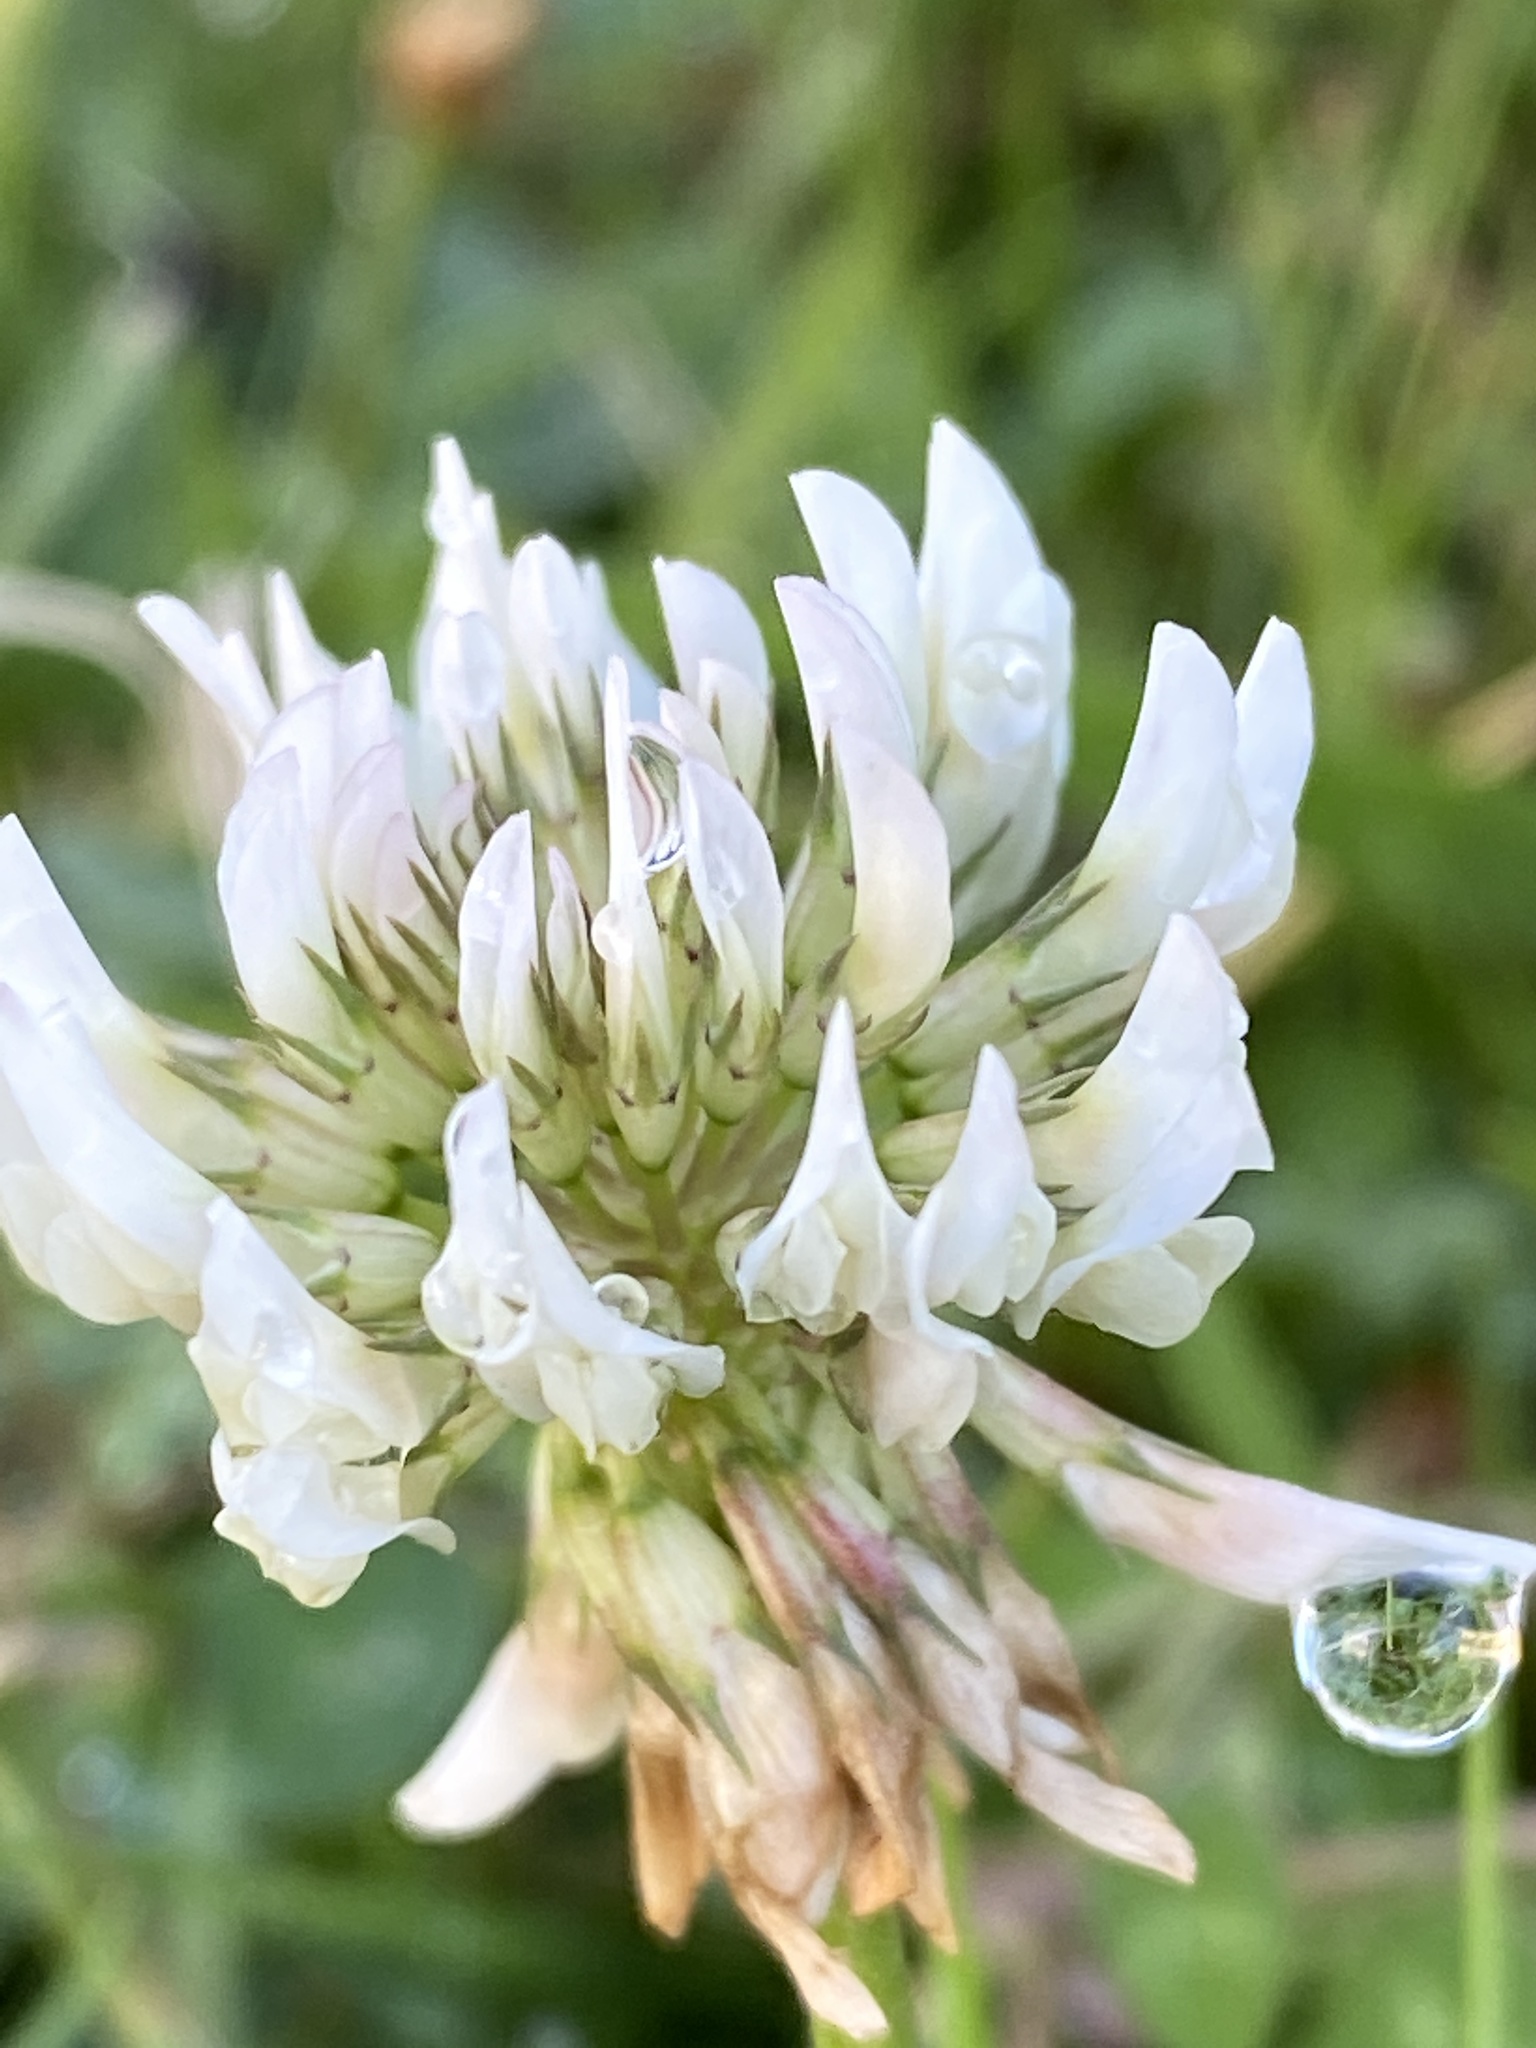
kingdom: Plantae
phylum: Tracheophyta
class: Magnoliopsida
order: Fabales
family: Fabaceae
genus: Trifolium
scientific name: Trifolium repens
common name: White clover
